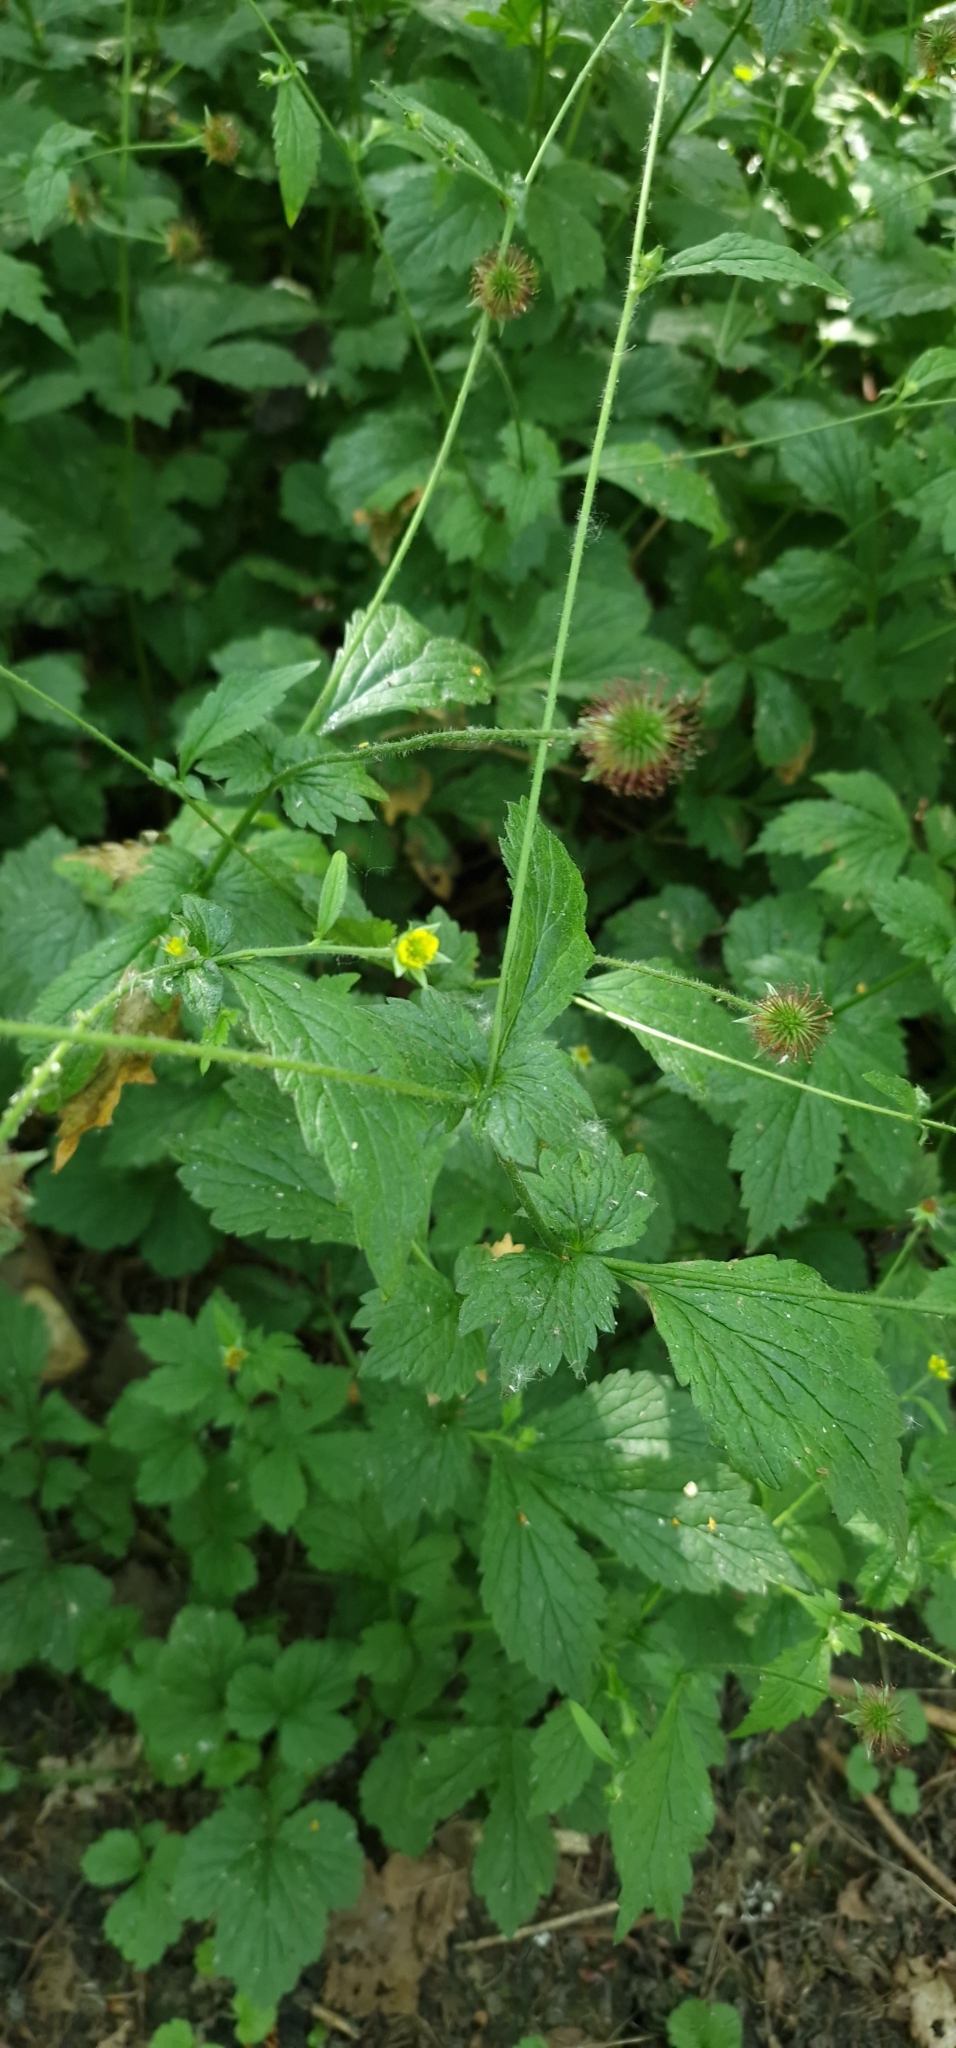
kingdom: Plantae
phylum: Tracheophyta
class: Magnoliopsida
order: Rosales
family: Rosaceae
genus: Geum
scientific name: Geum urbanum
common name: Wood avens
